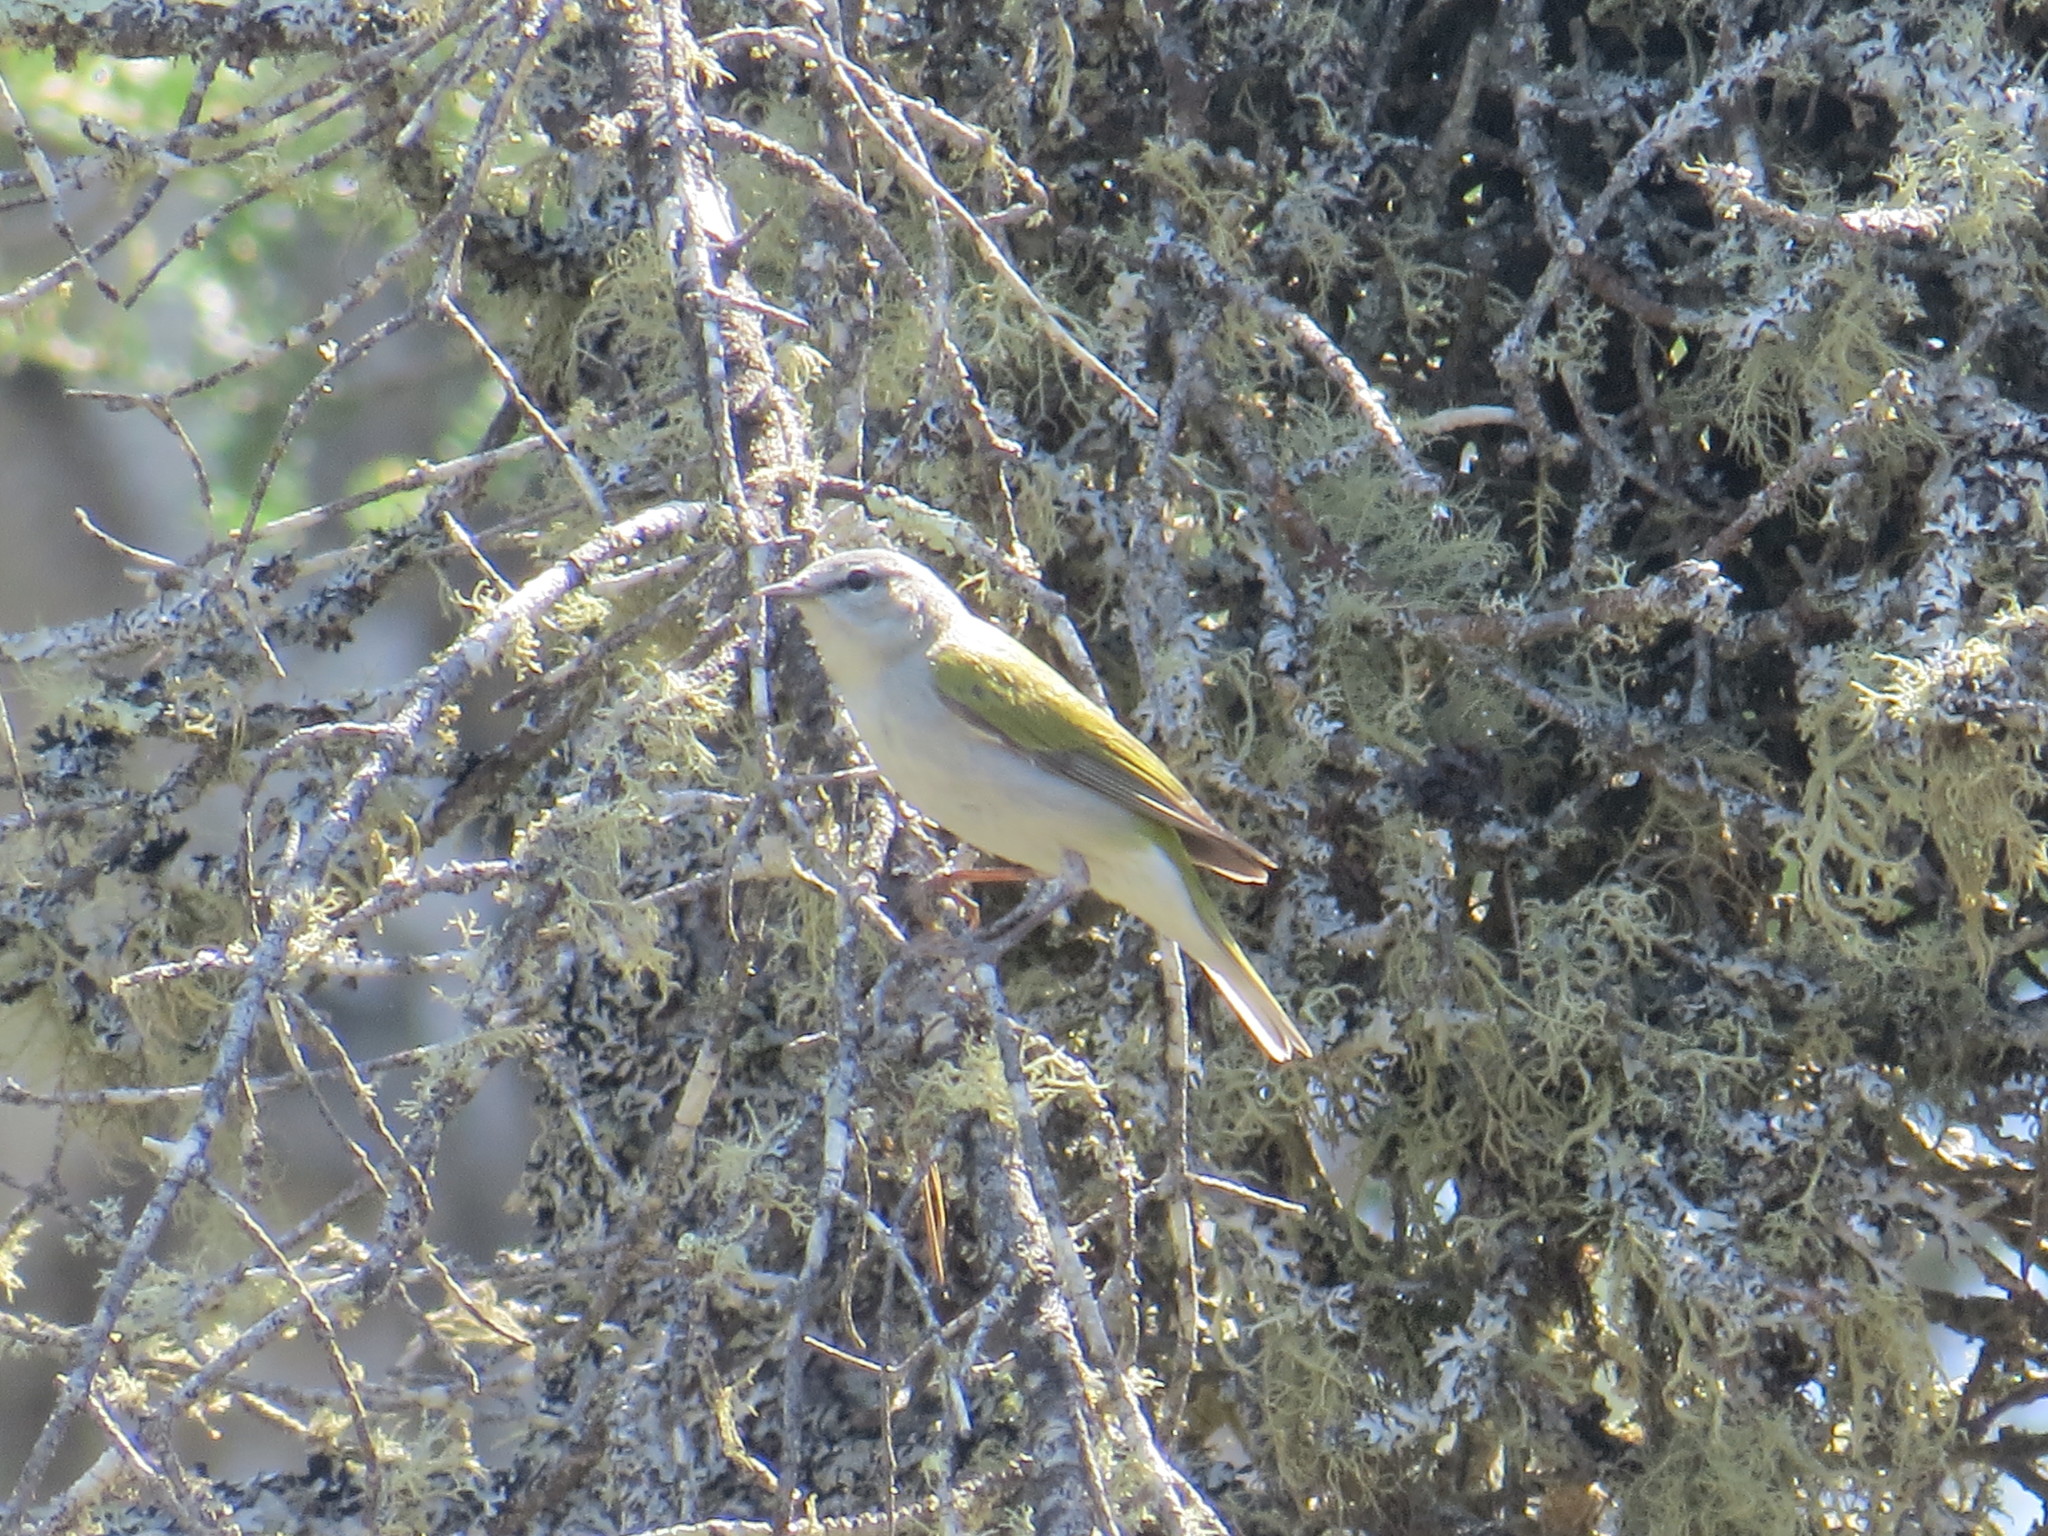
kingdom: Animalia
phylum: Chordata
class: Aves
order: Passeriformes
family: Parulidae
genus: Leiothlypis
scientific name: Leiothlypis peregrina
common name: Tennessee warbler
